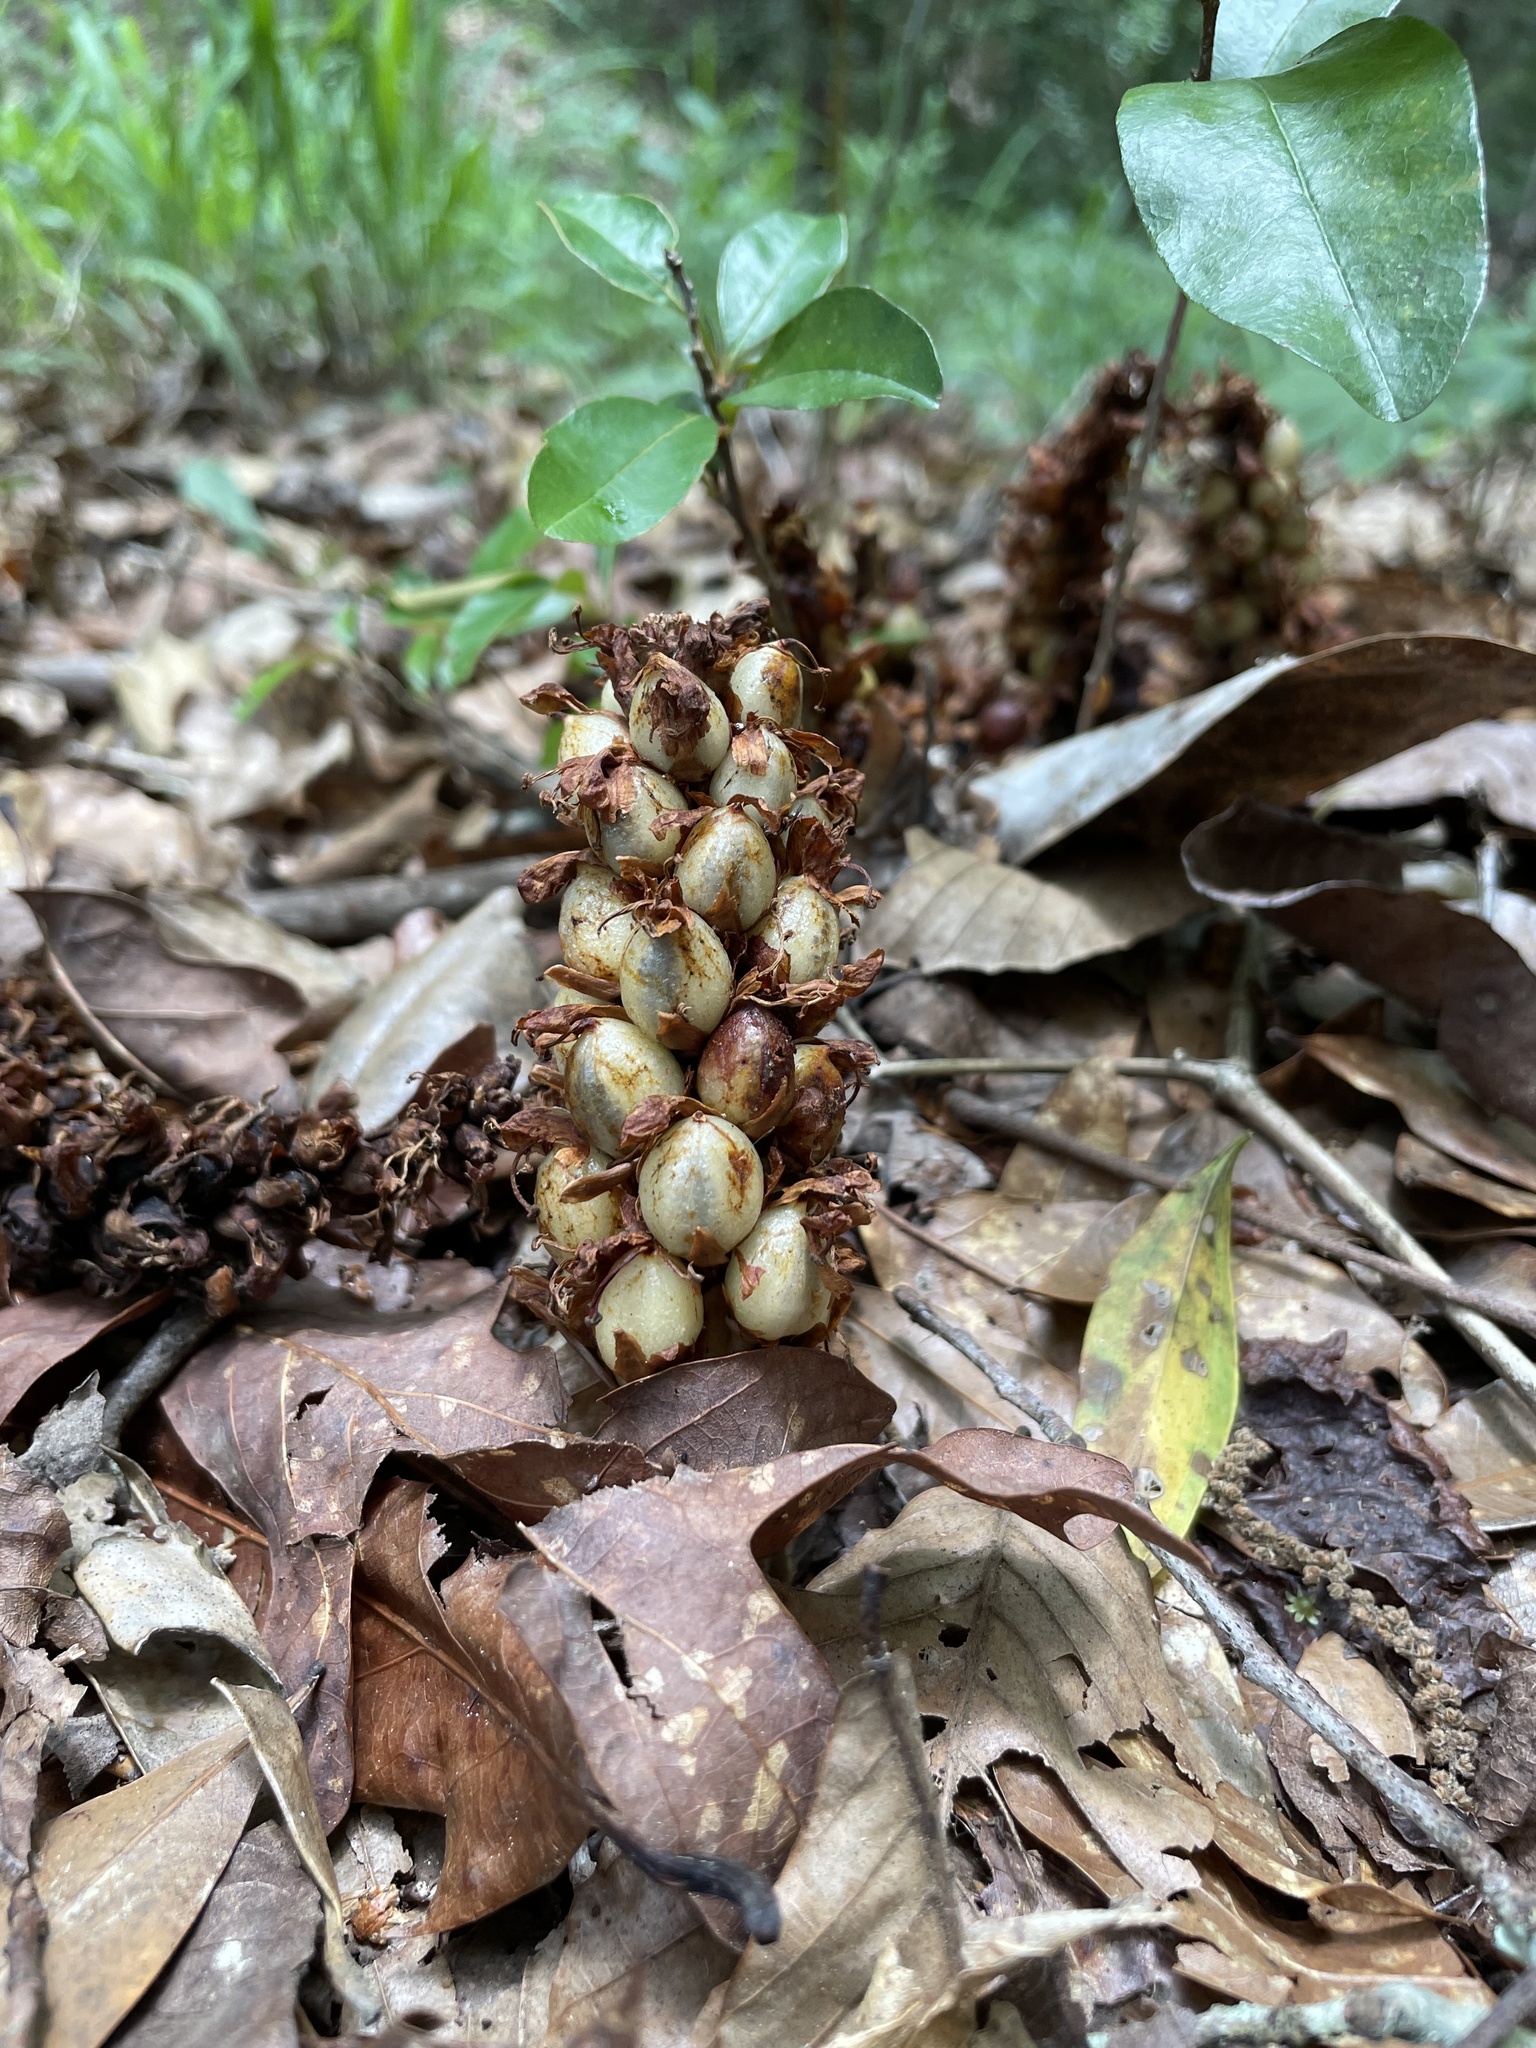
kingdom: Plantae
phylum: Tracheophyta
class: Magnoliopsida
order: Lamiales
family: Orobanchaceae
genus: Conopholis
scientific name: Conopholis americana
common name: American cancer-root
